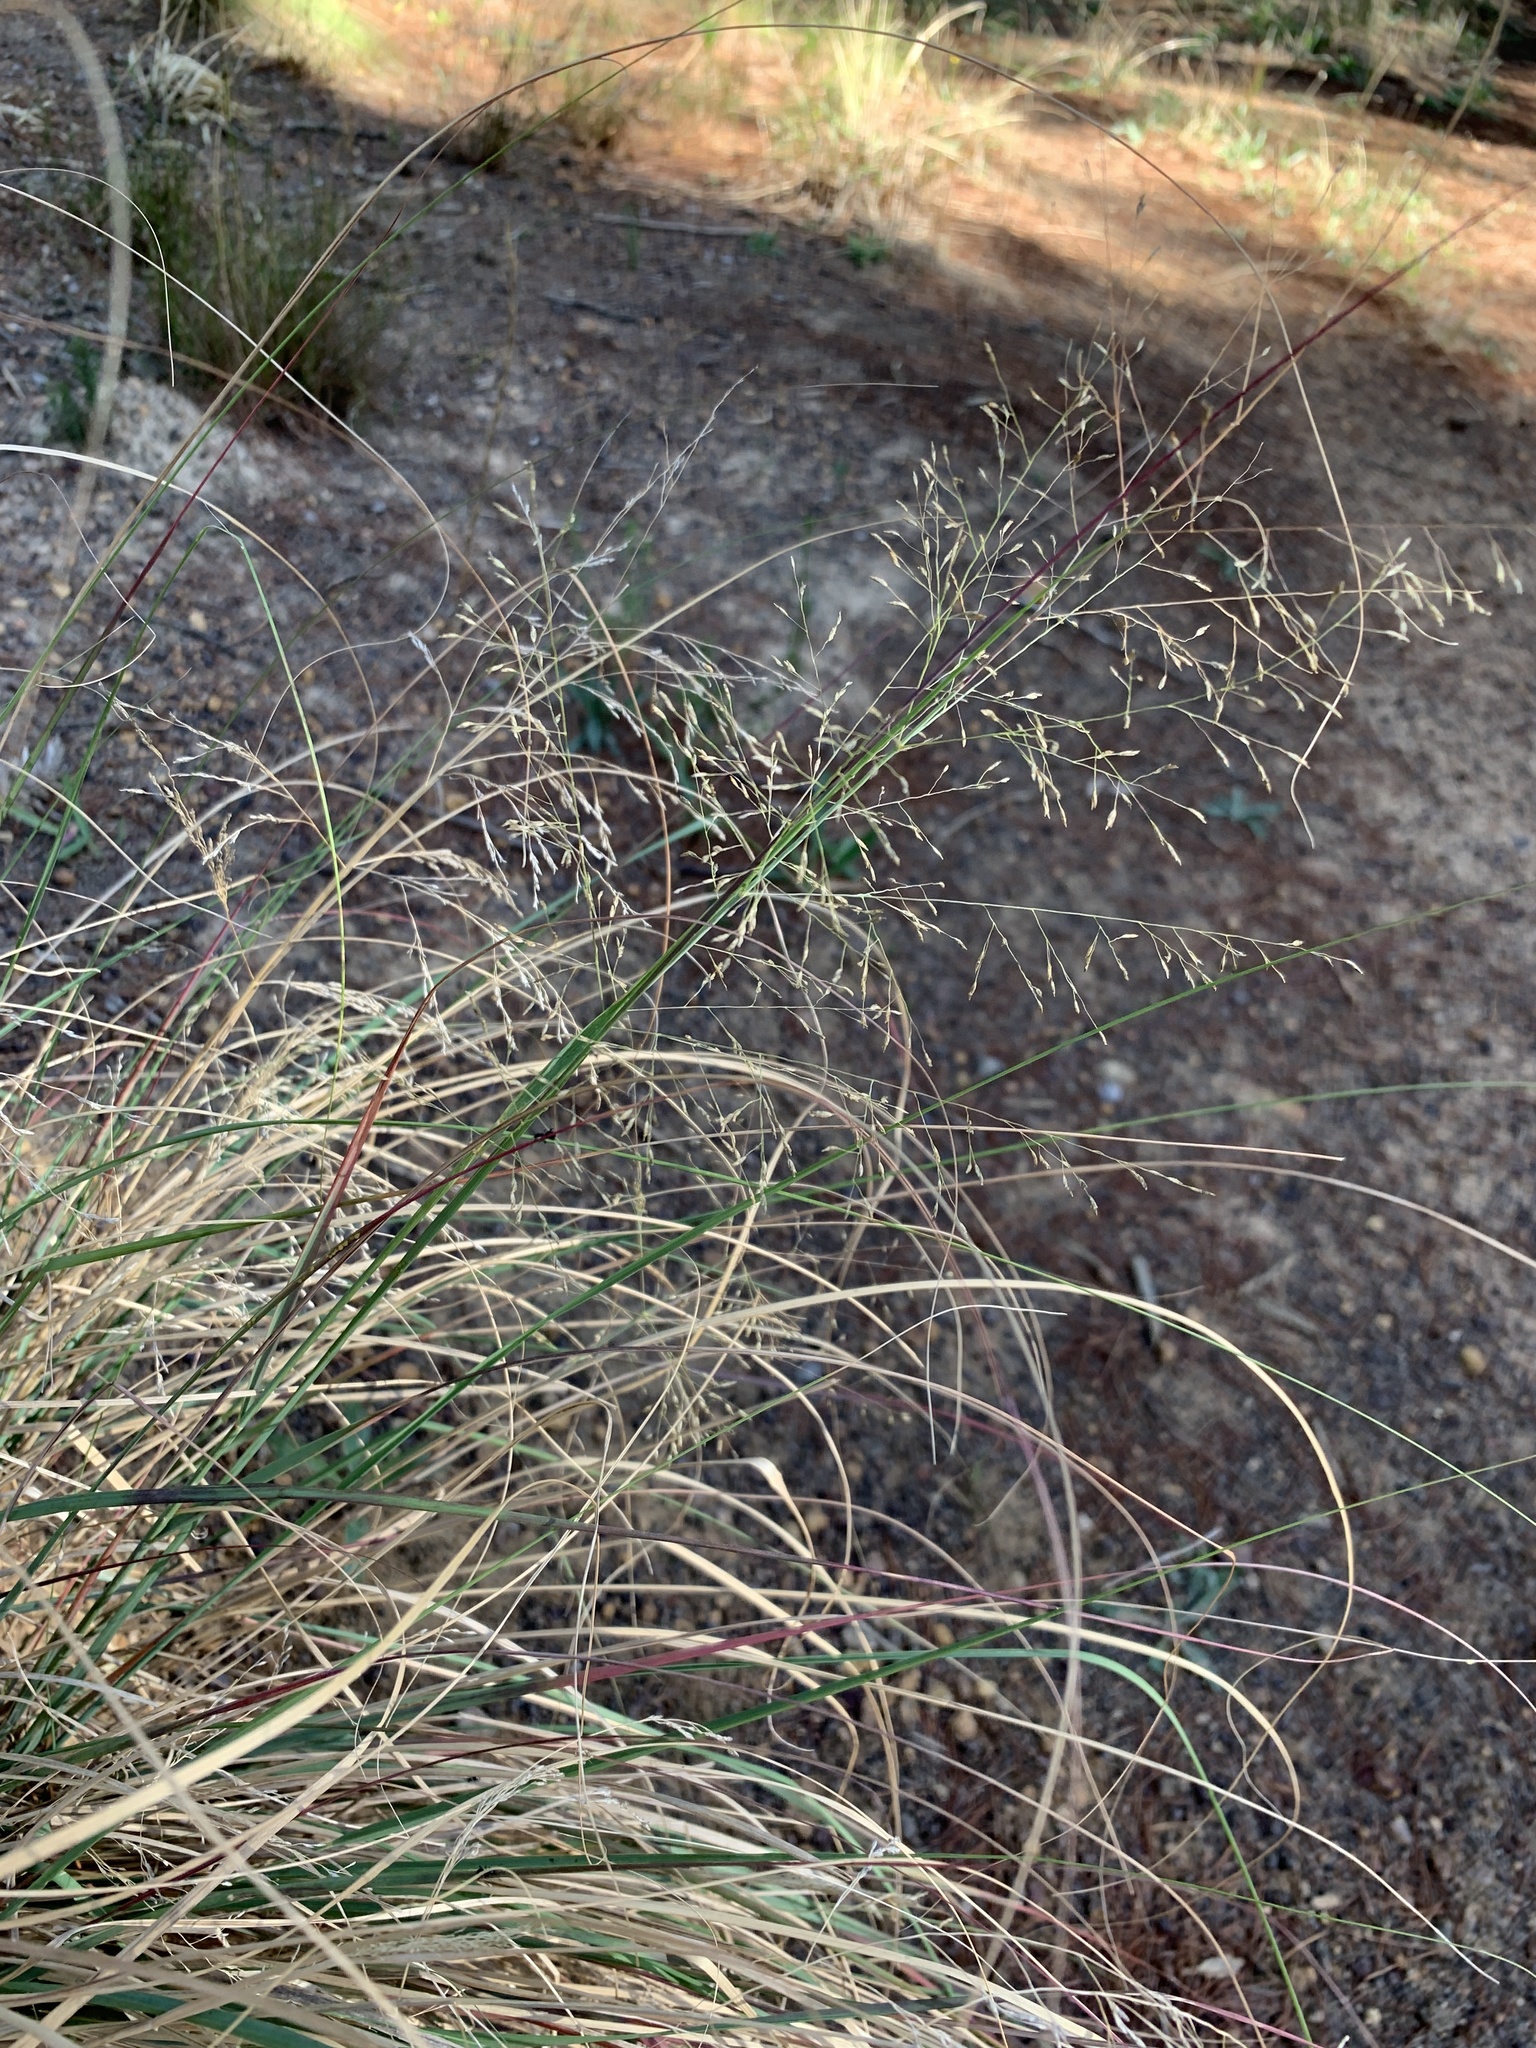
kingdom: Plantae
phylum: Tracheophyta
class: Liliopsida
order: Poales
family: Poaceae
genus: Eragrostis
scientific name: Eragrostis curvula
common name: African love-grass
